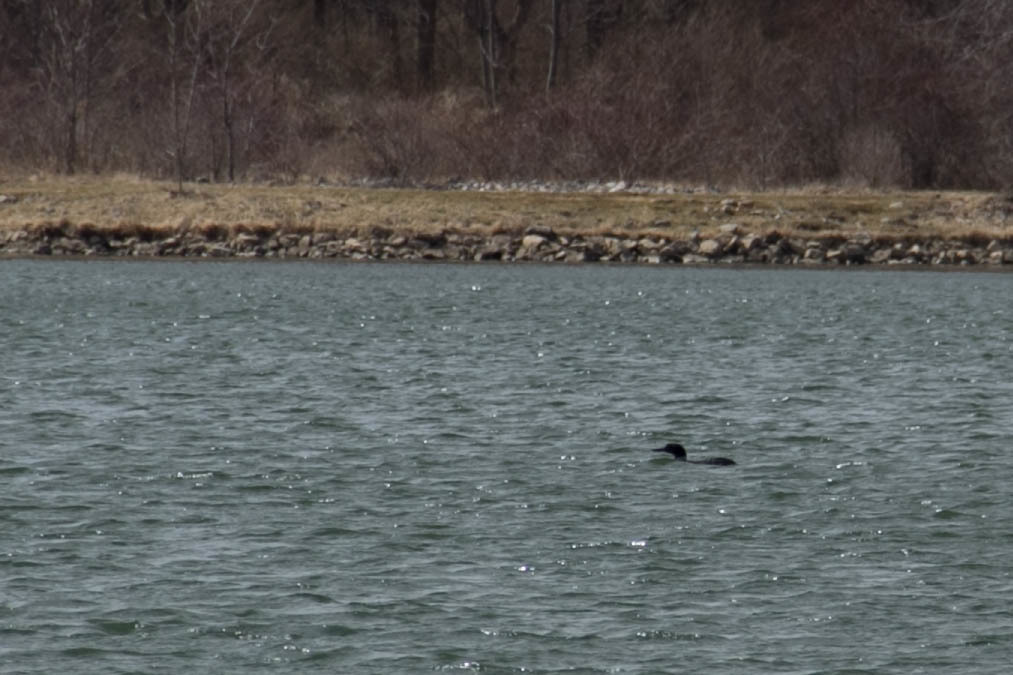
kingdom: Animalia
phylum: Chordata
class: Aves
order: Gaviiformes
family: Gaviidae
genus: Gavia
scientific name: Gavia immer
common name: Common loon
